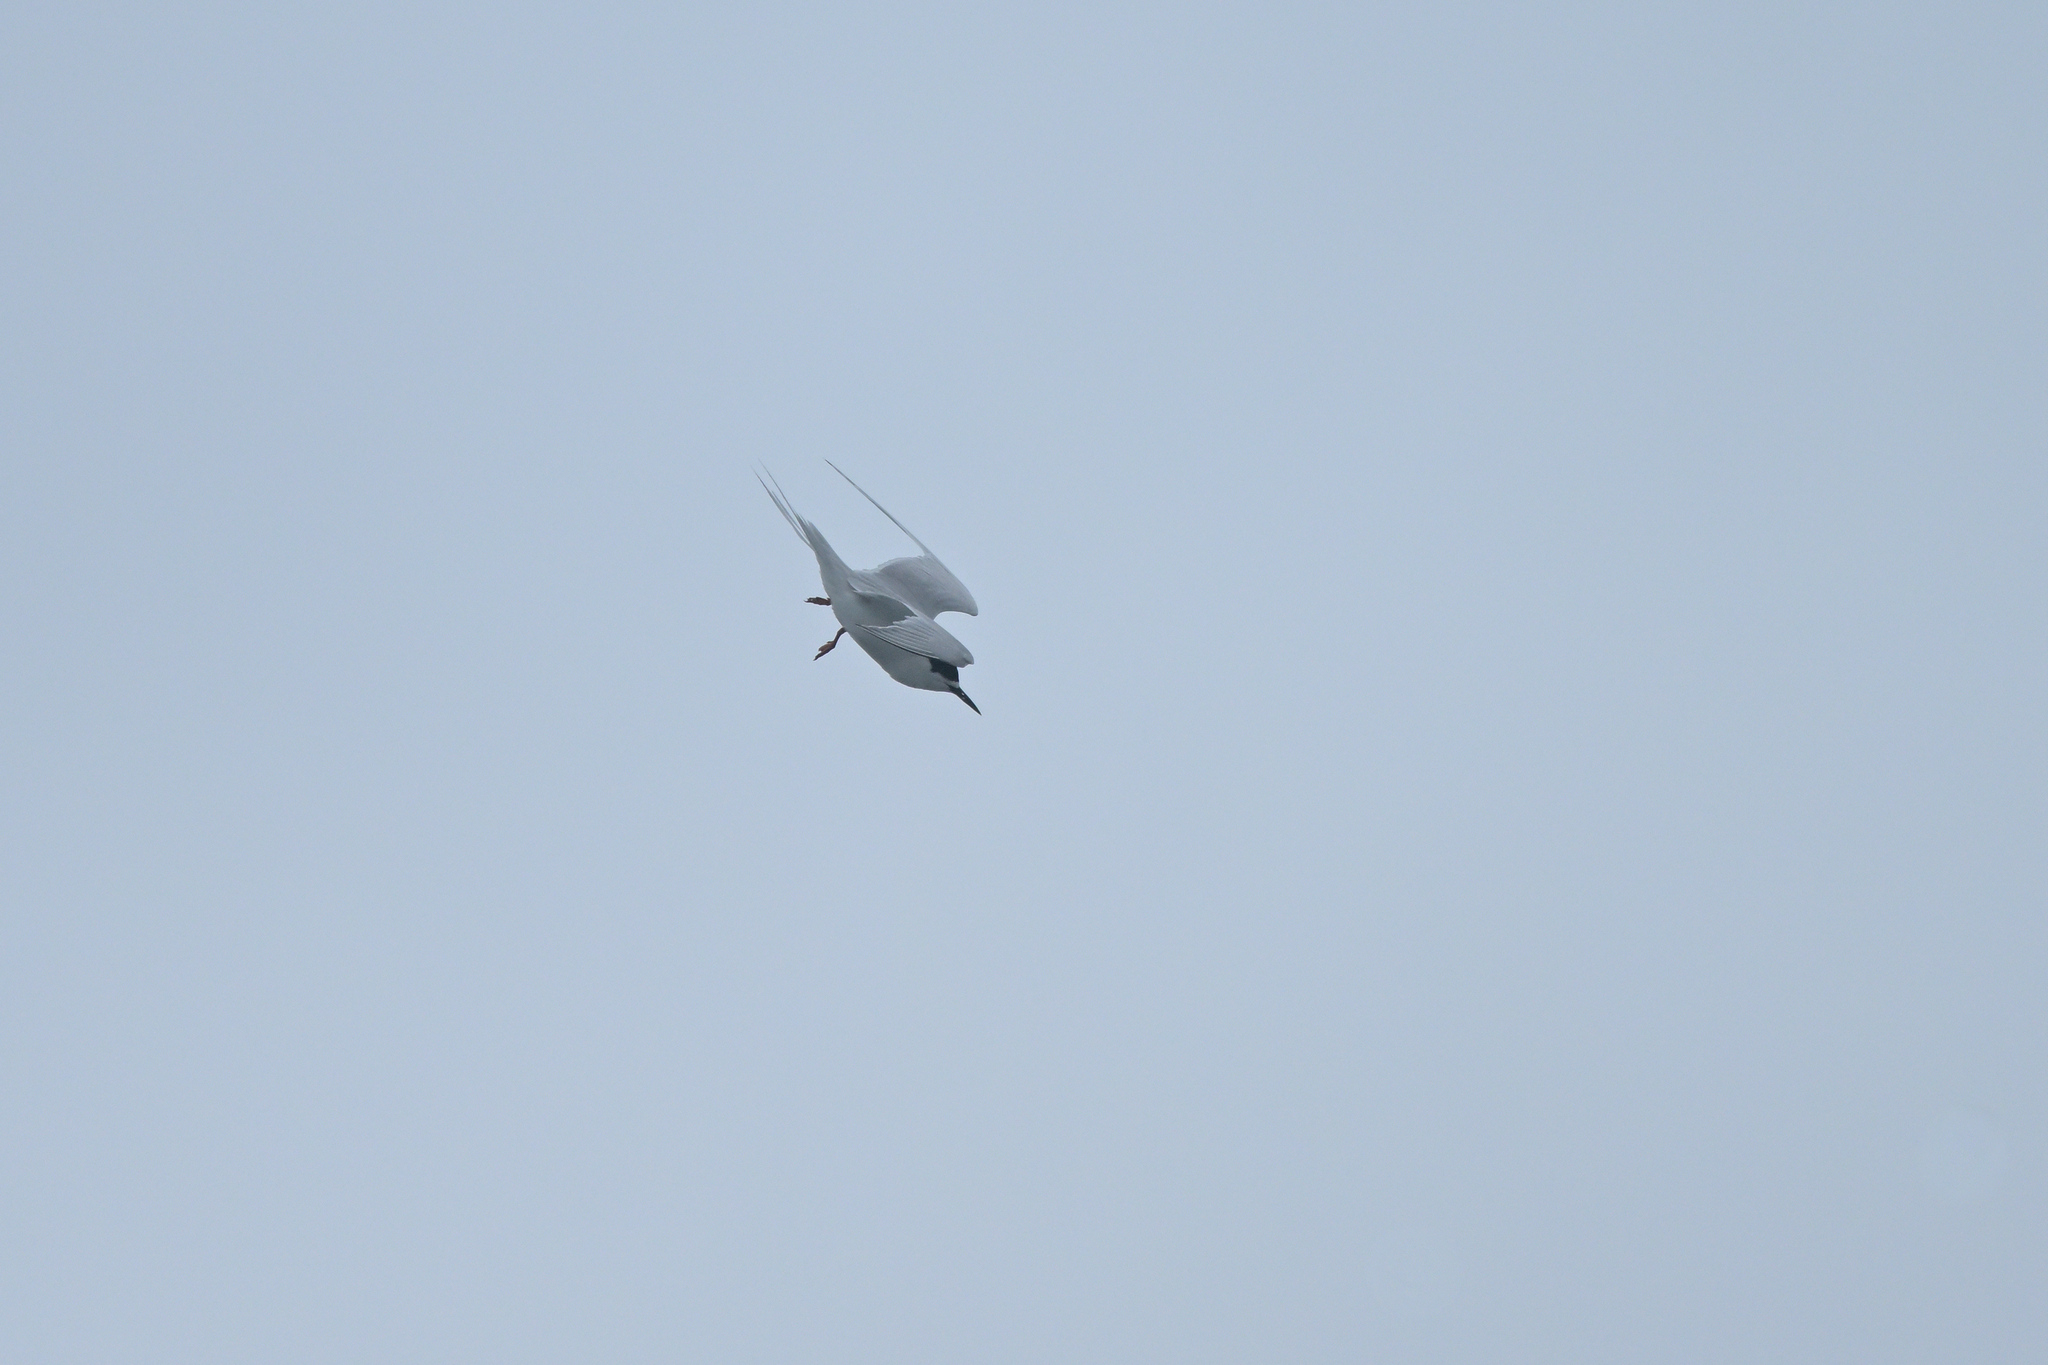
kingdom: Animalia
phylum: Chordata
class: Aves
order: Charadriiformes
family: Laridae
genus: Sterna
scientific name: Sterna striata
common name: White-fronted tern
